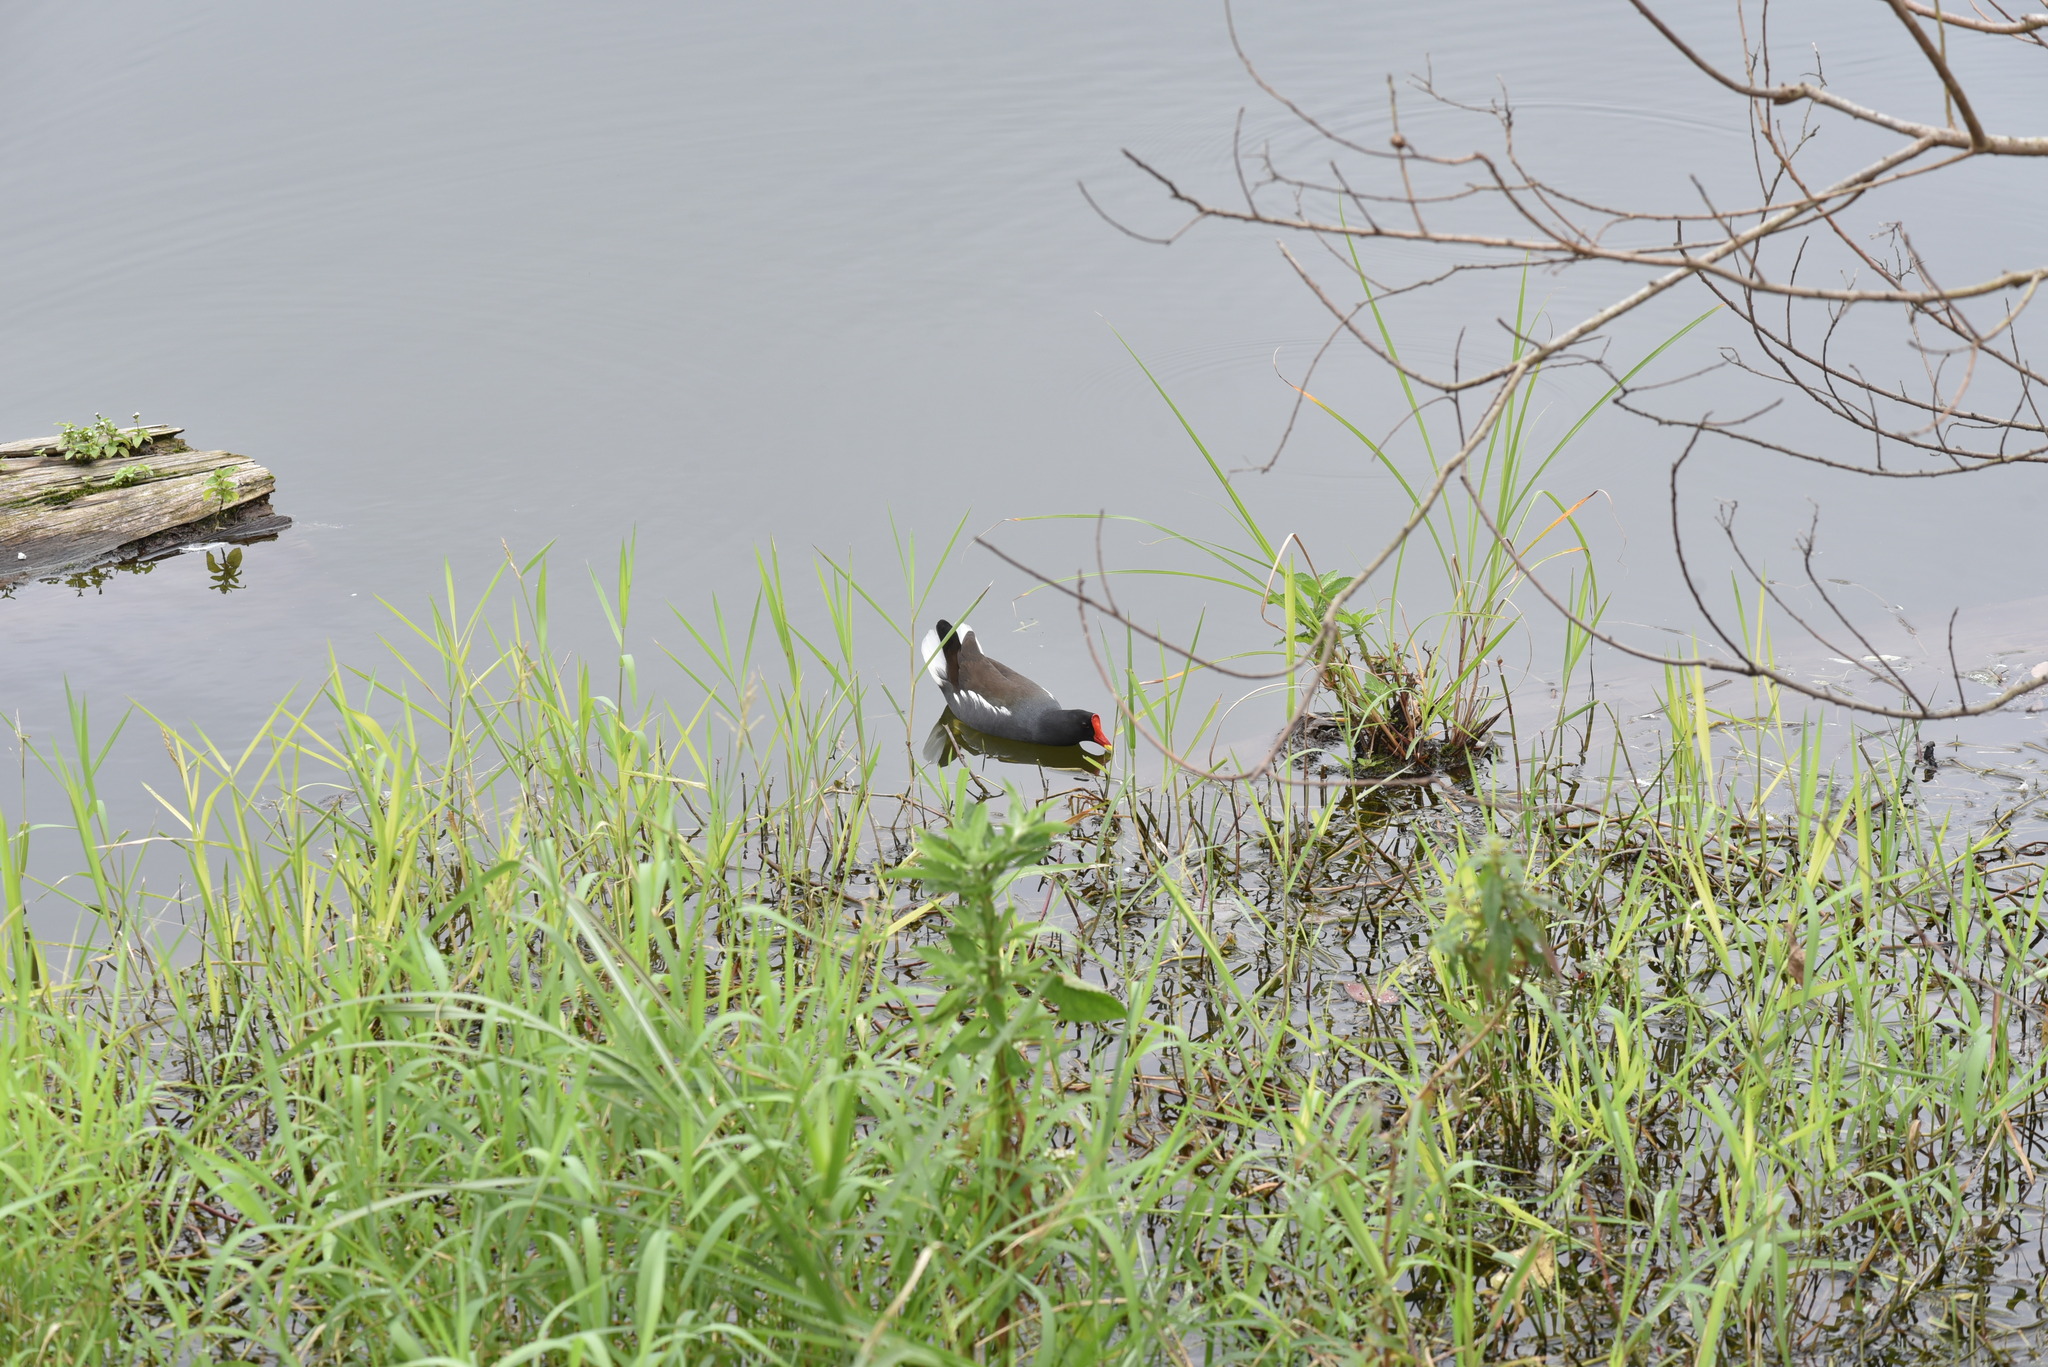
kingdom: Animalia
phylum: Chordata
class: Aves
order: Gruiformes
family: Rallidae
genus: Gallinula
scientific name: Gallinula chloropus
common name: Common moorhen
